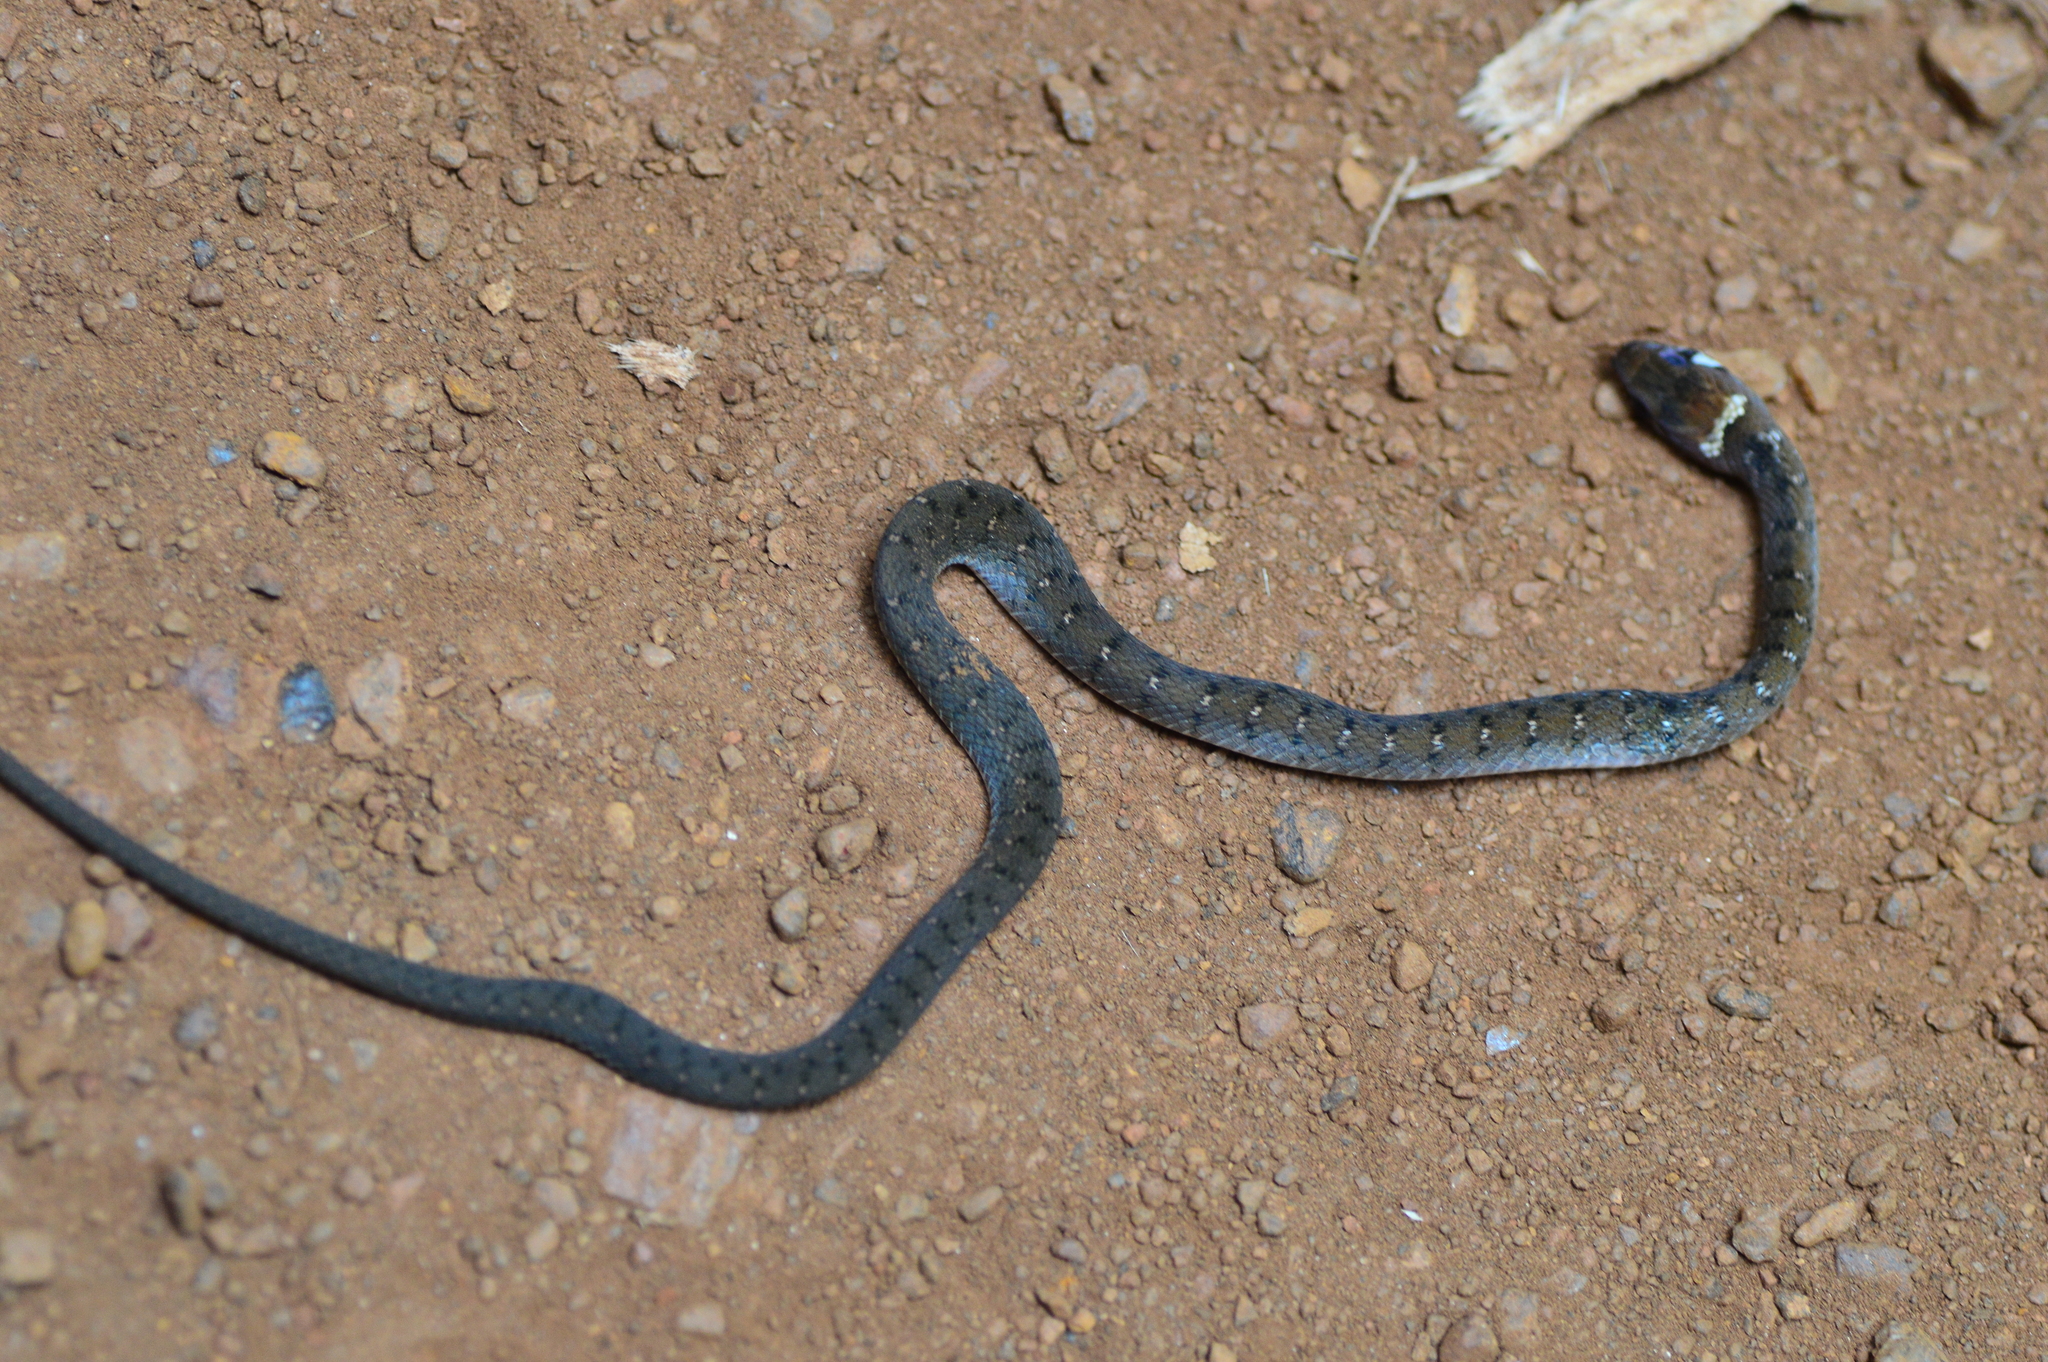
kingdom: Animalia
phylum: Chordata
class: Squamata
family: Colubridae
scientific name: Colubridae
